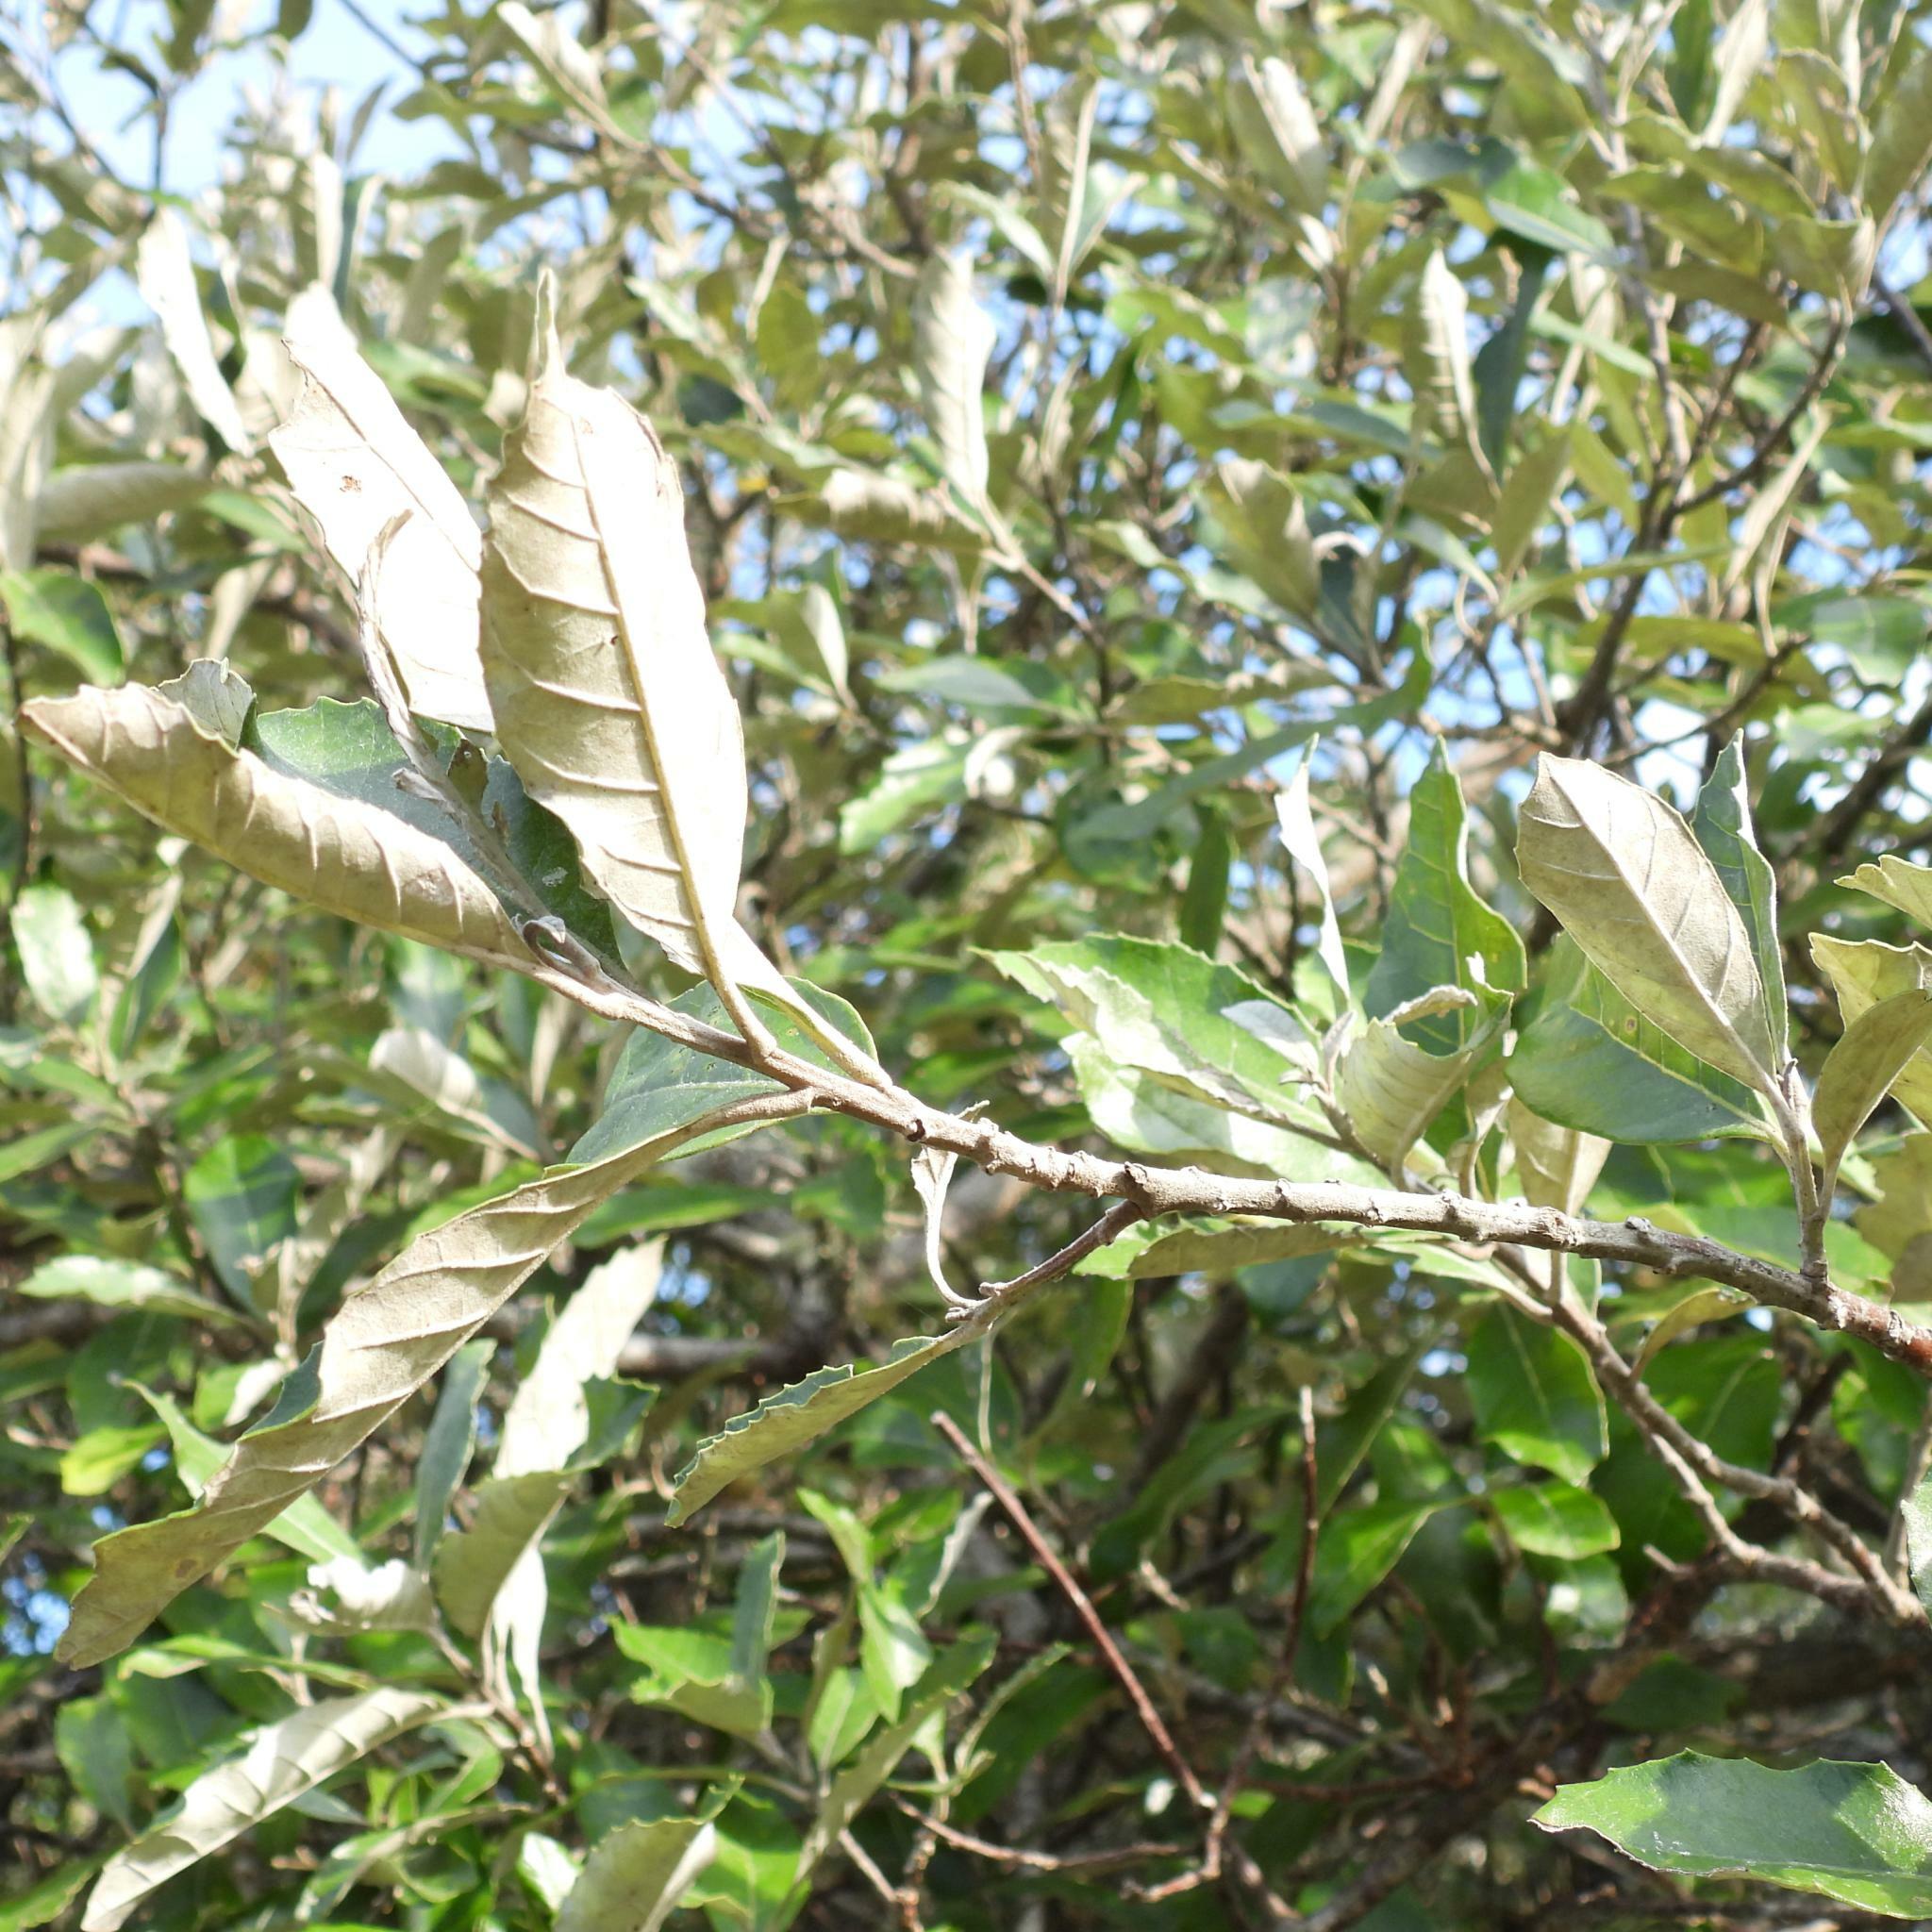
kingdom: Plantae
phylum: Tracheophyta
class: Magnoliopsida
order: Asterales
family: Asteraceae
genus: Brachylaena
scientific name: Brachylaena discolor
